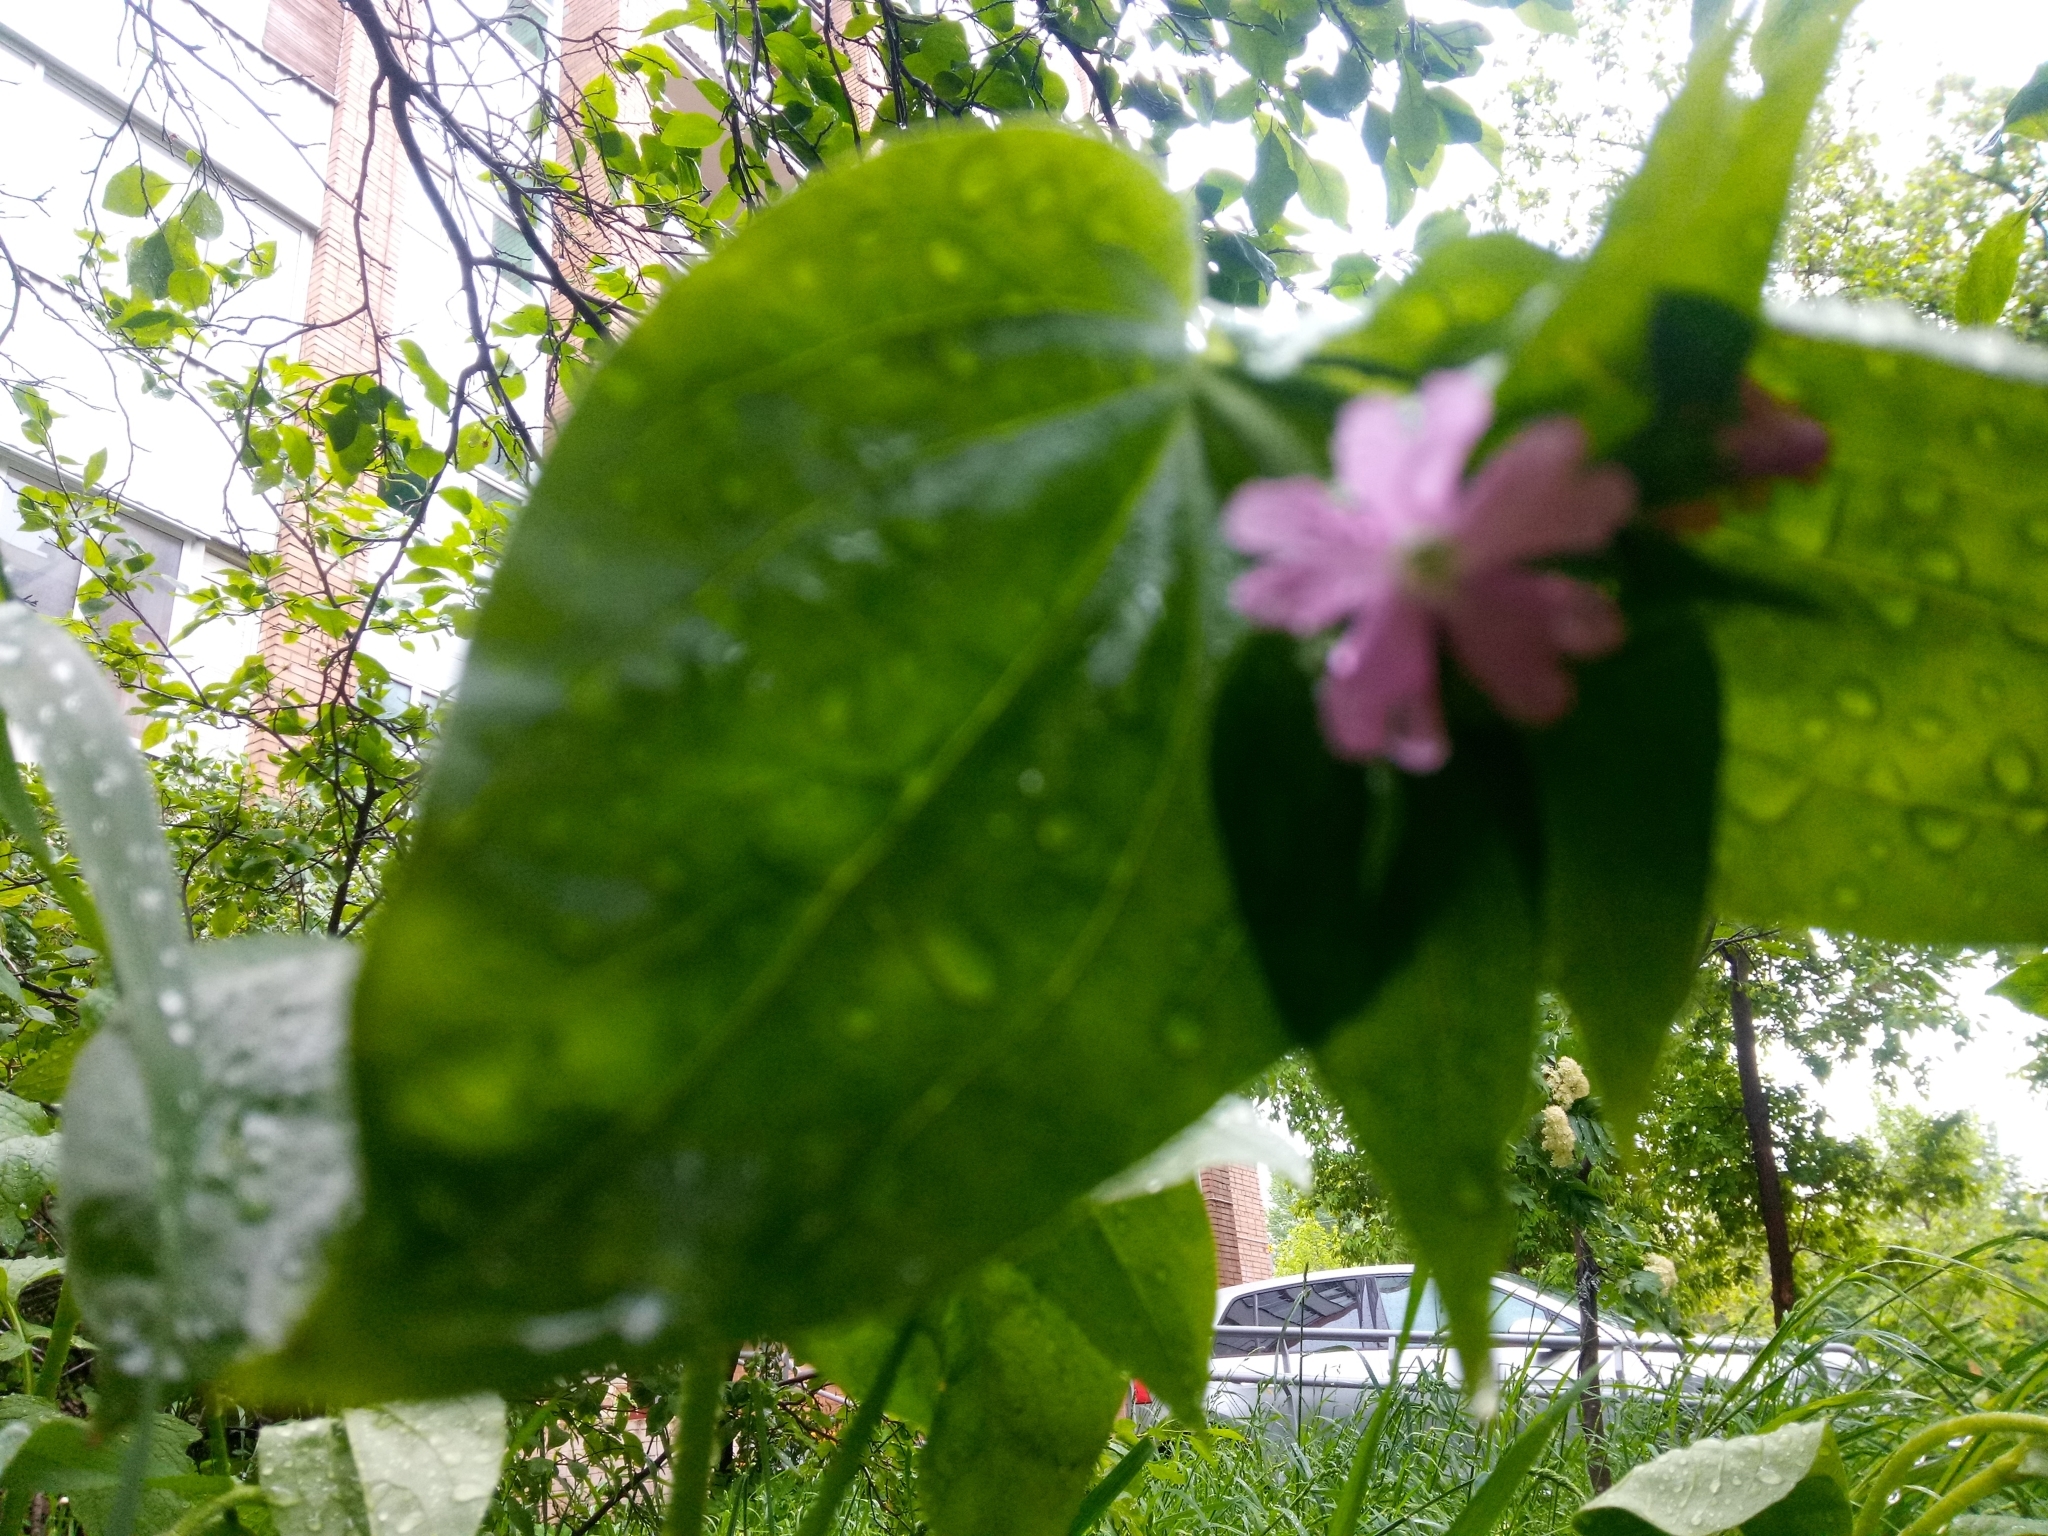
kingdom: Plantae
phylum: Tracheophyta
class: Magnoliopsida
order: Caryophyllales
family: Caryophyllaceae
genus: Silene
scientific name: Silene dioica
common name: Red campion
